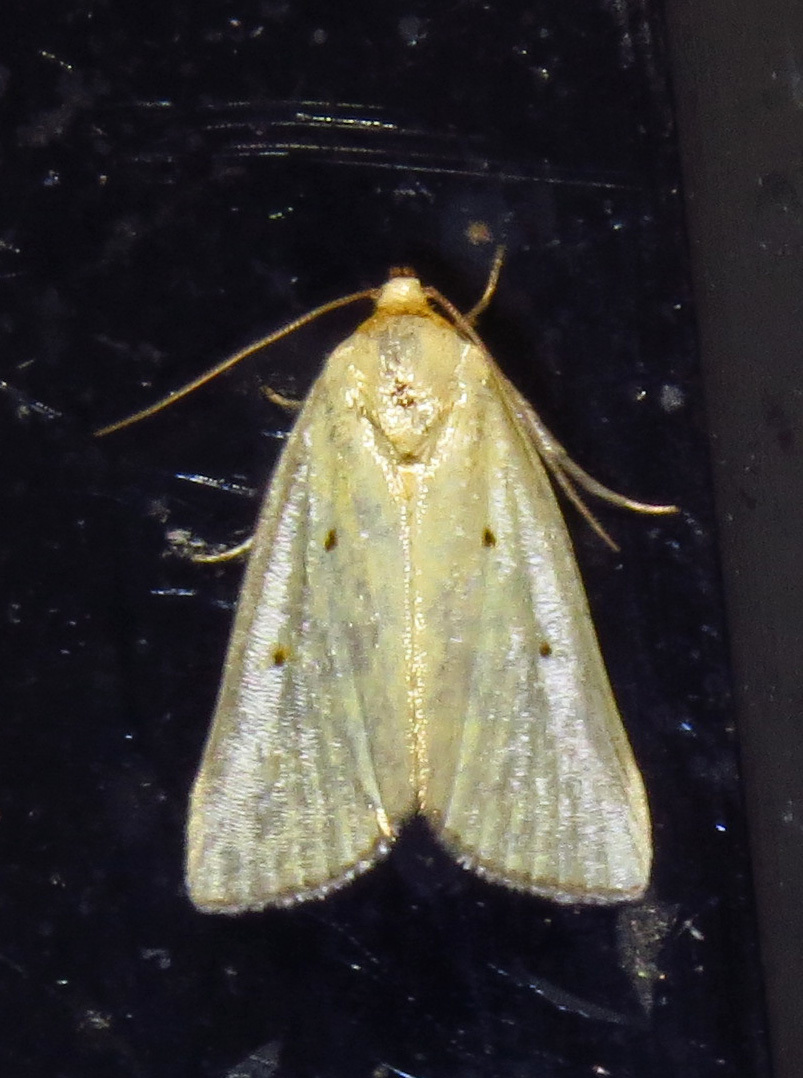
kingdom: Animalia
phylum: Arthropoda
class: Insecta
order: Lepidoptera
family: Noctuidae
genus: Marimatha
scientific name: Marimatha nigrofimbria
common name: Black-bordered lemon moth
